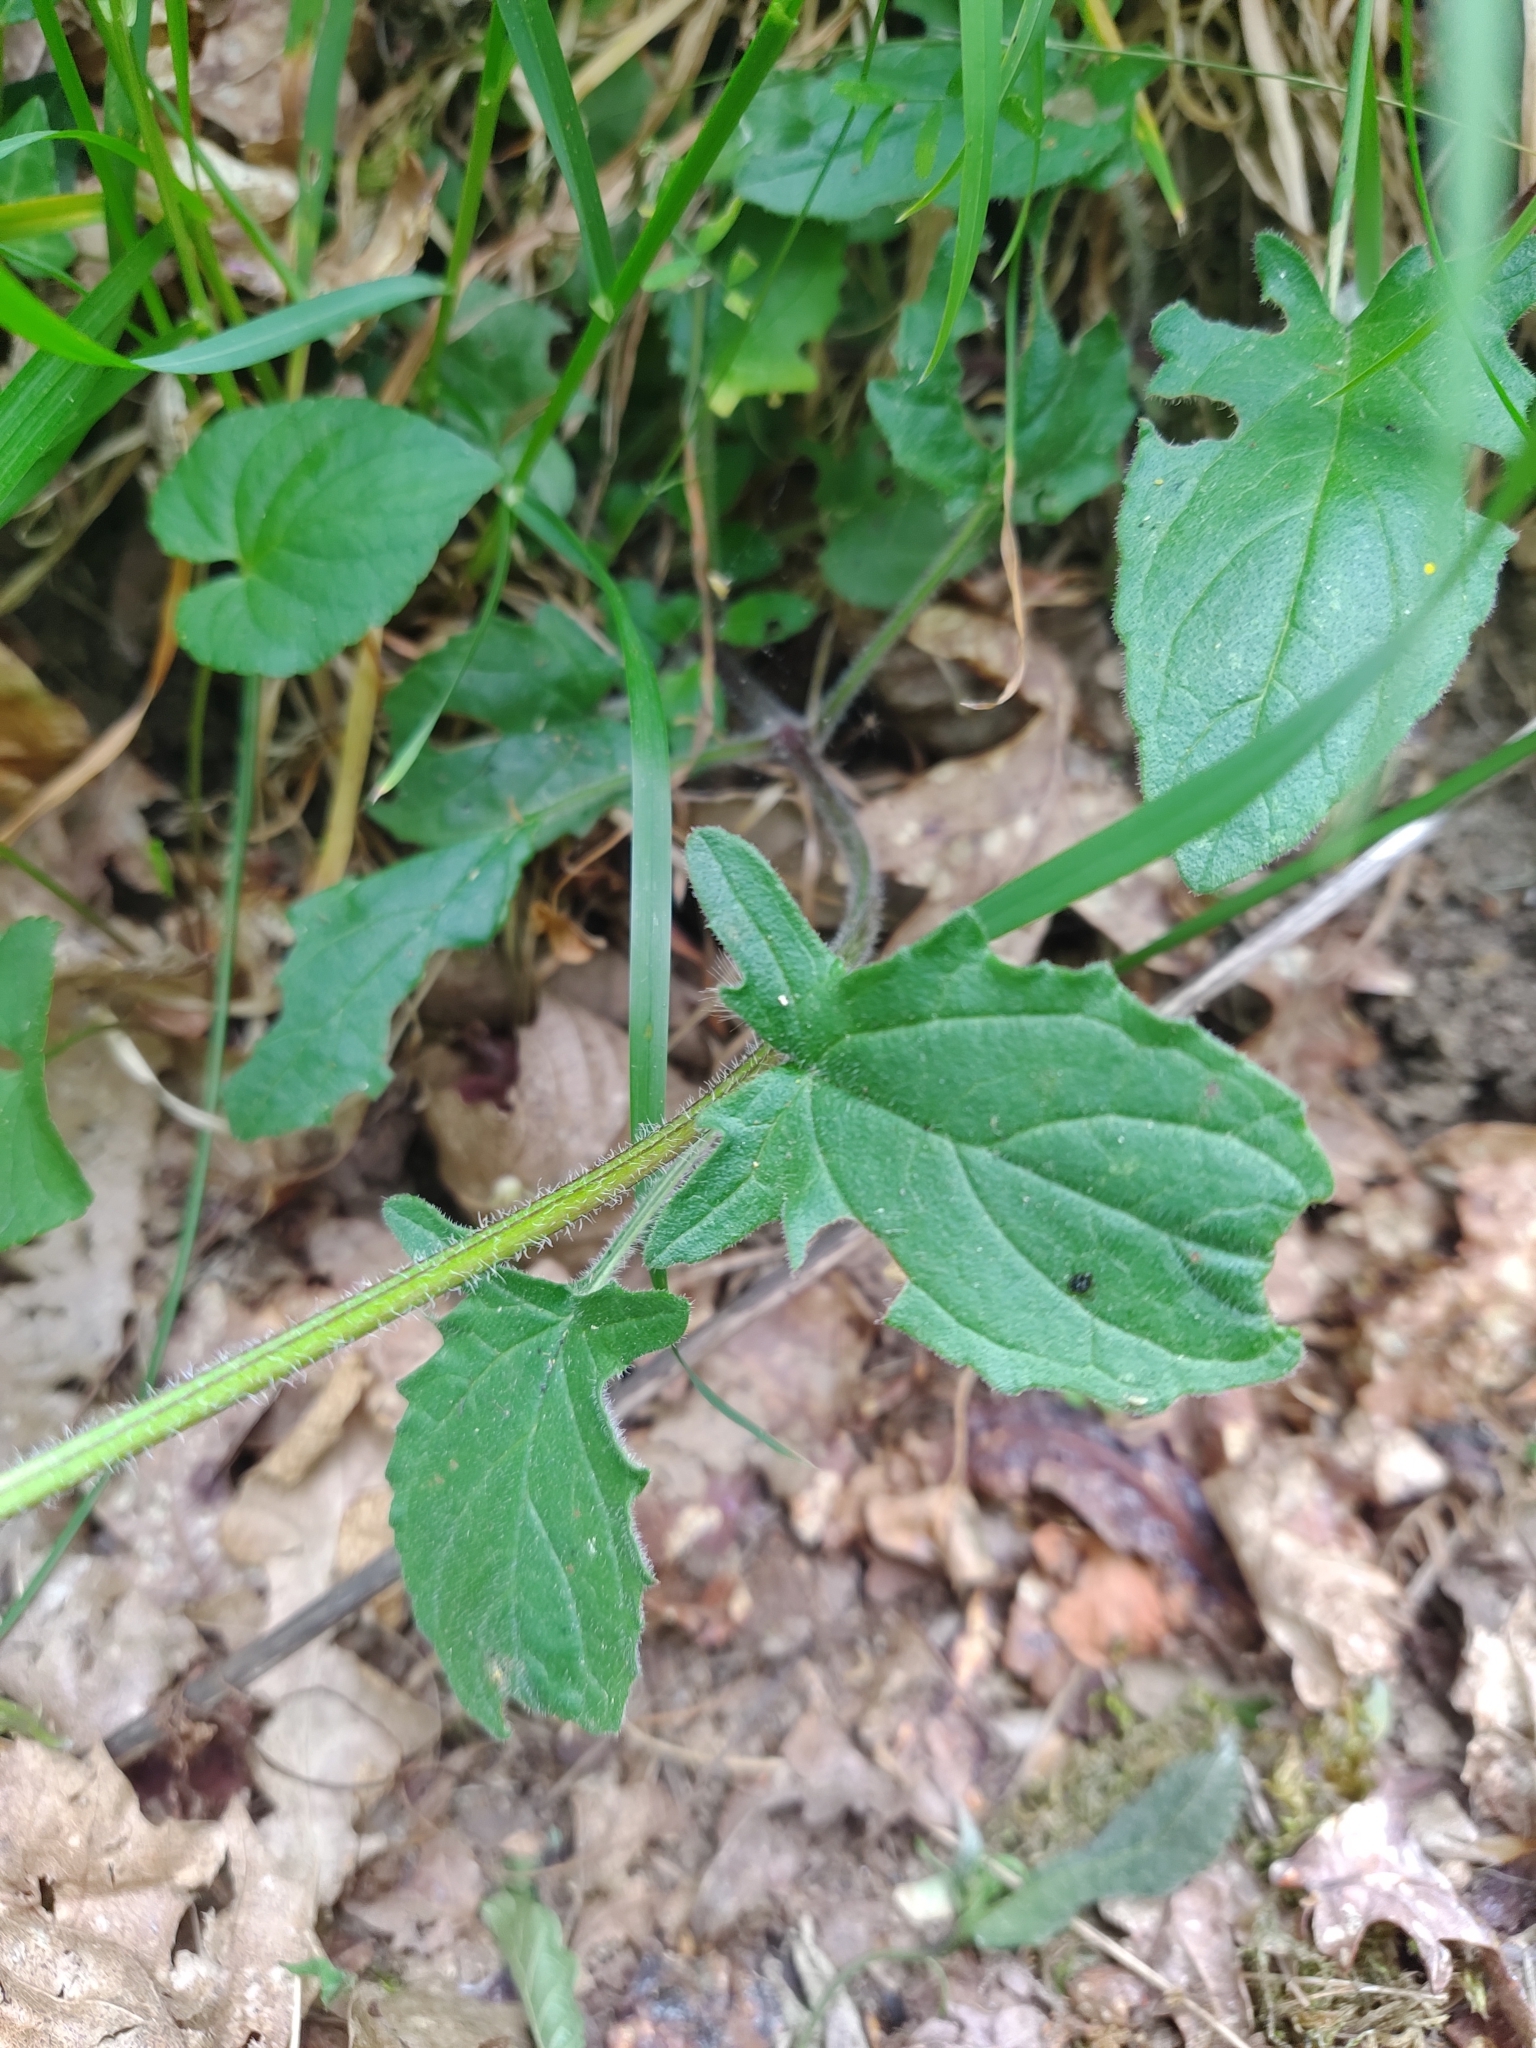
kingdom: Plantae
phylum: Tracheophyta
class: Magnoliopsida
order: Lamiales
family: Lamiaceae
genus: Prunella
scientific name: Prunella grandiflora
